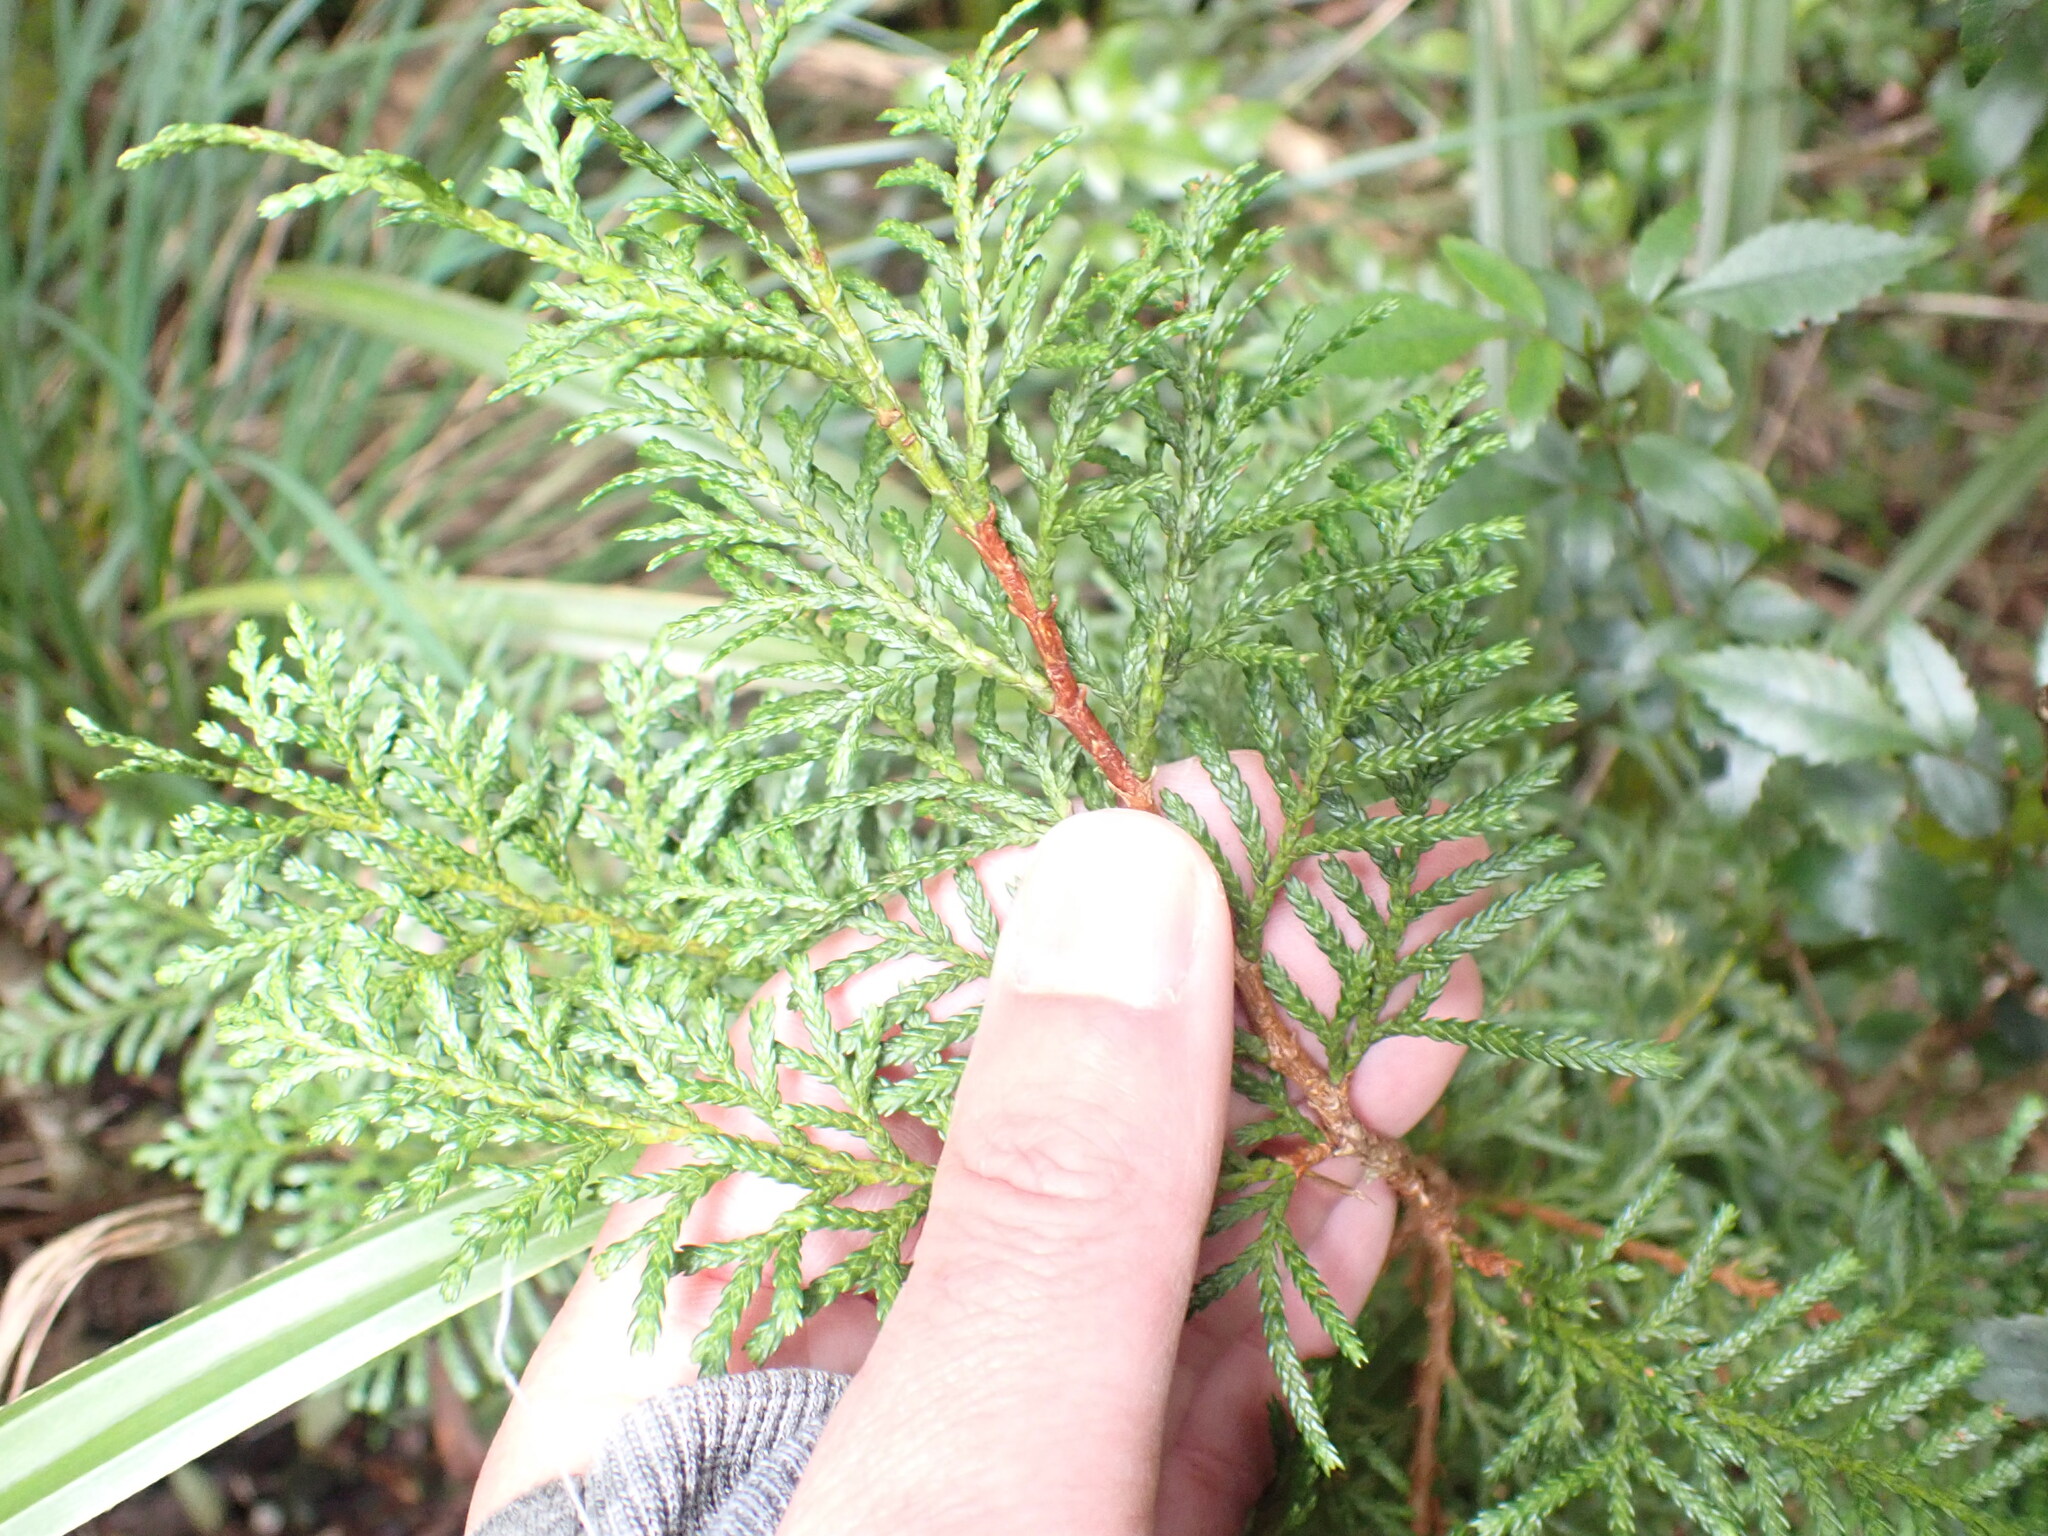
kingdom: Plantae
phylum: Tracheophyta
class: Pinopsida
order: Pinales
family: Cupressaceae
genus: Libocedrus
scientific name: Libocedrus bidwillii
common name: Cedar
